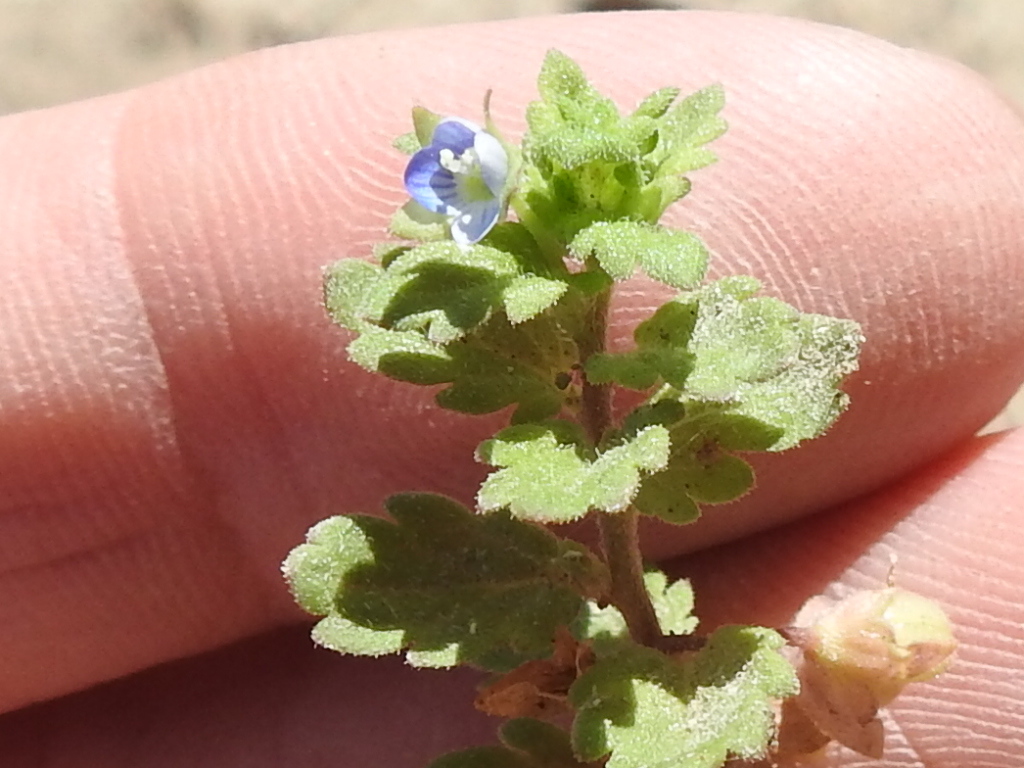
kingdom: Plantae
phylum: Tracheophyta
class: Magnoliopsida
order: Lamiales
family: Plantaginaceae
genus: Veronica
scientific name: Veronica polita
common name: Grey field-speedwell
